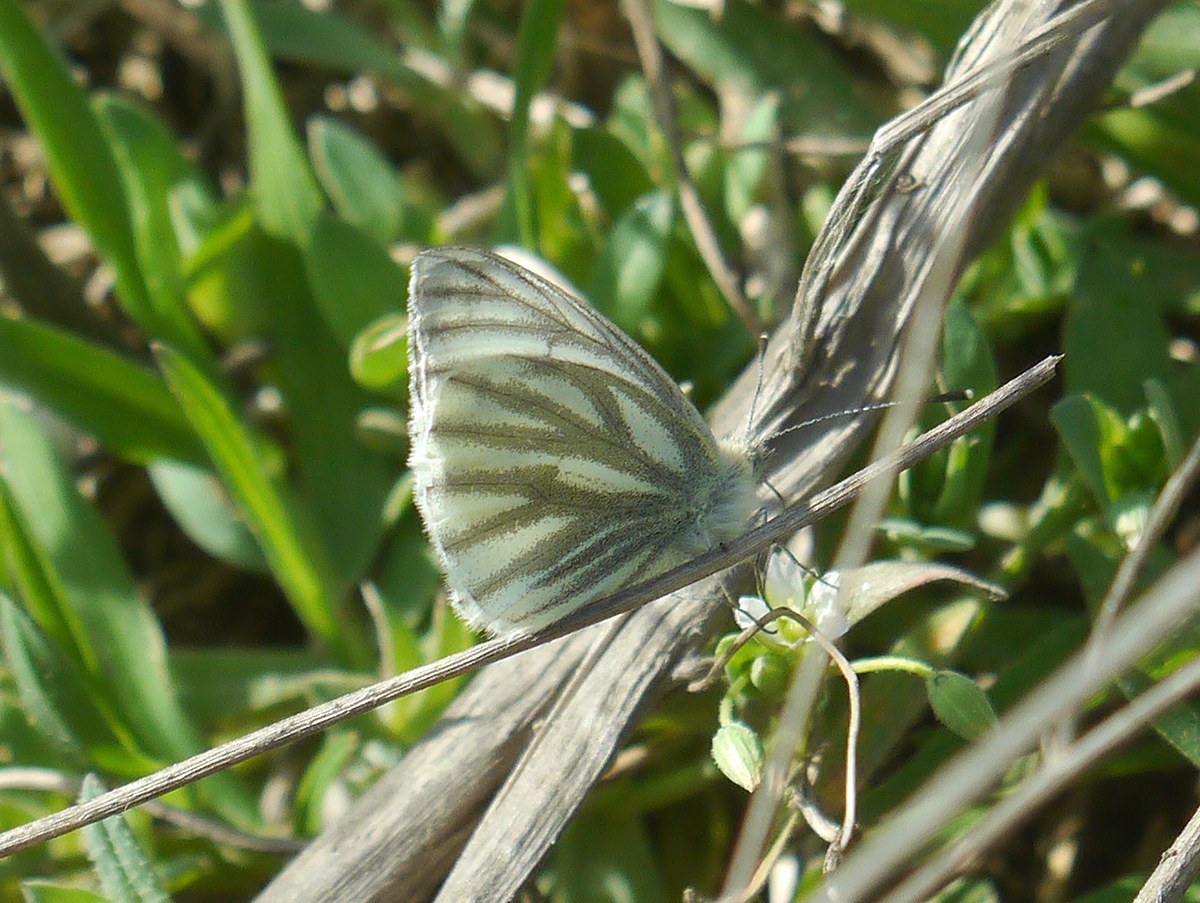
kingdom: Animalia
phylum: Arthropoda
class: Insecta
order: Lepidoptera
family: Pieridae
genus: Pieris
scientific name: Pieris napi
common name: Green-veined white
